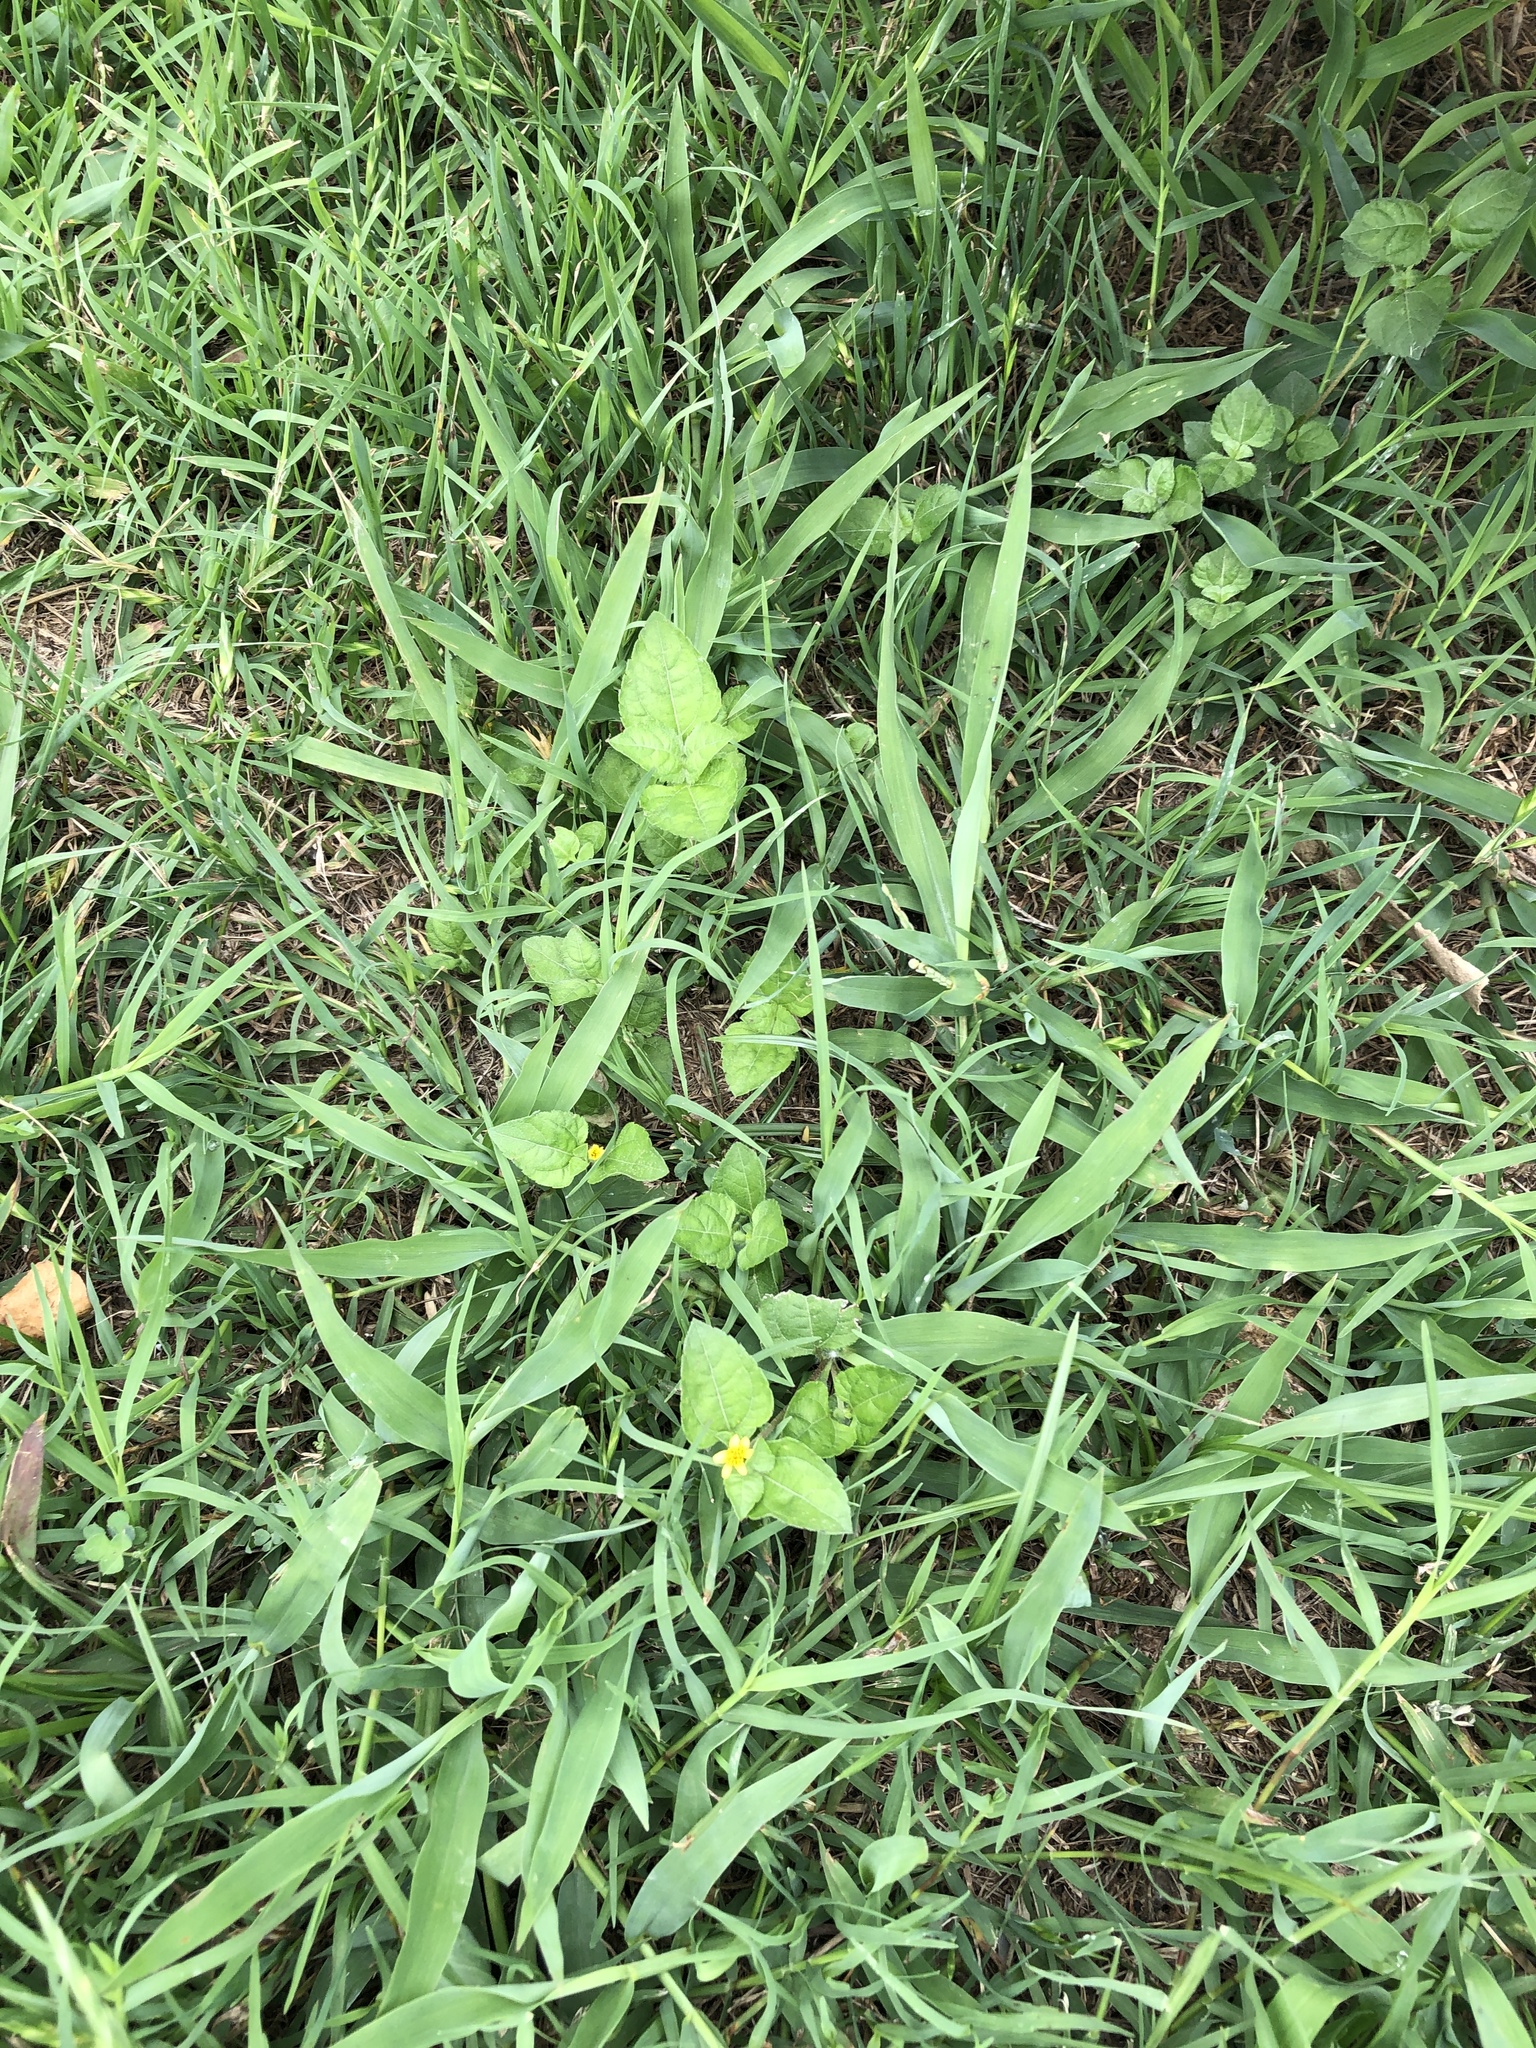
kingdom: Plantae
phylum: Tracheophyta
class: Magnoliopsida
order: Asterales
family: Asteraceae
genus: Calyptocarpus
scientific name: Calyptocarpus vialis
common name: Straggler daisy
